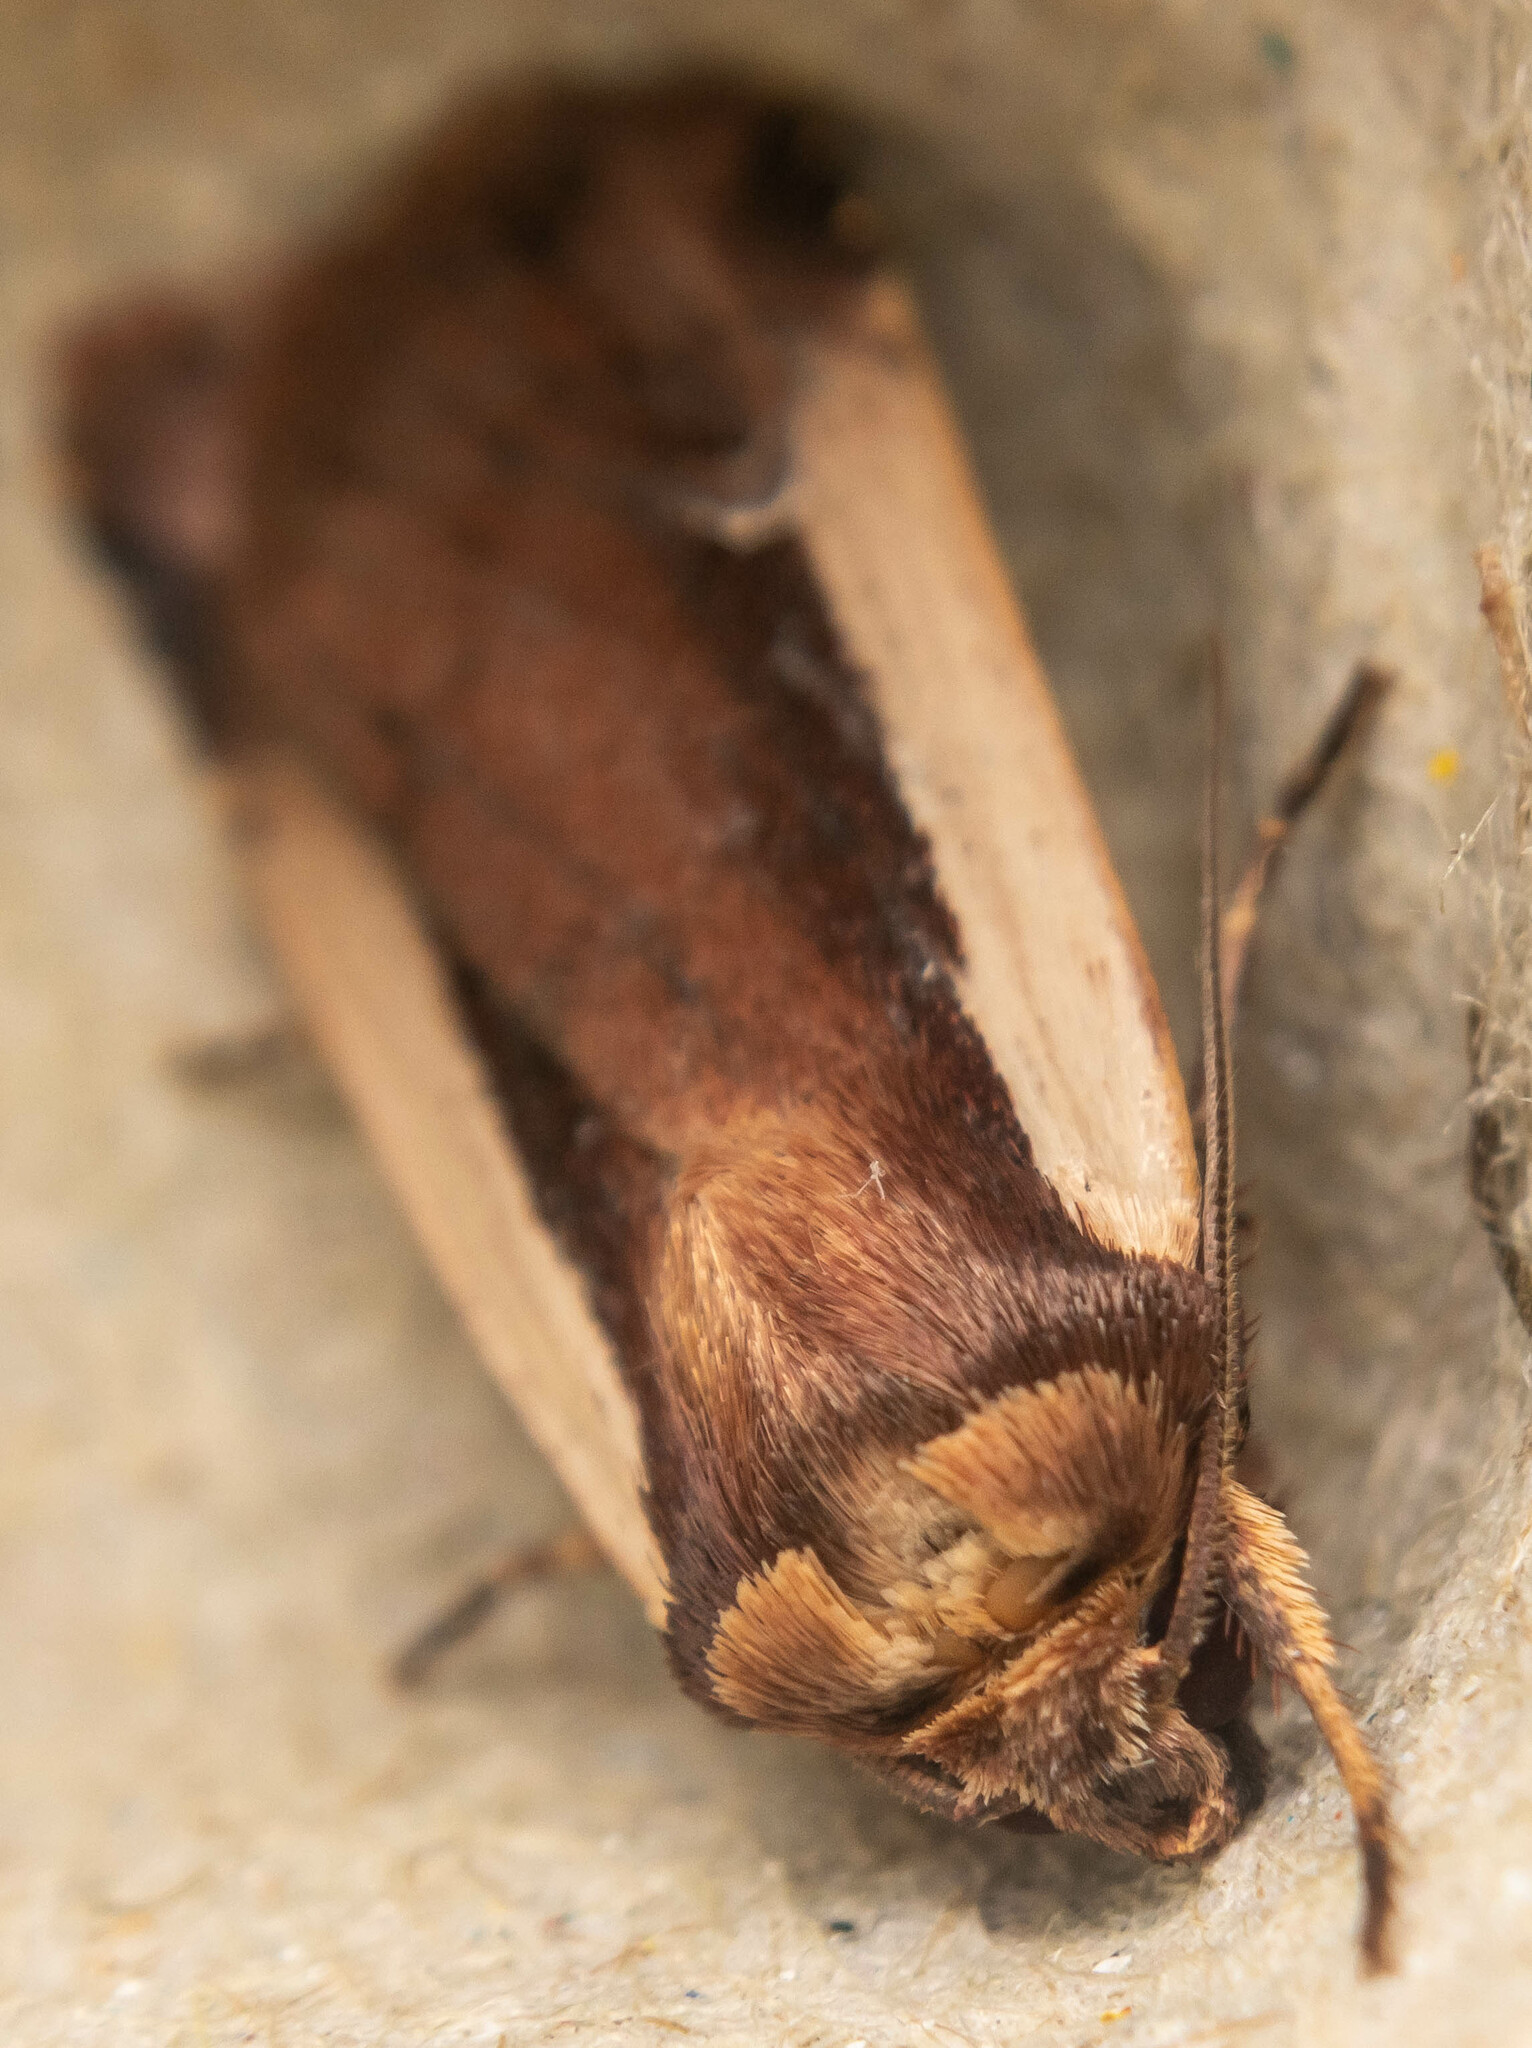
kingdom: Animalia
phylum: Arthropoda
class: Insecta
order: Lepidoptera
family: Noctuidae
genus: Ochropleura
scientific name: Ochropleura plecta
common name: Flame shoulder
